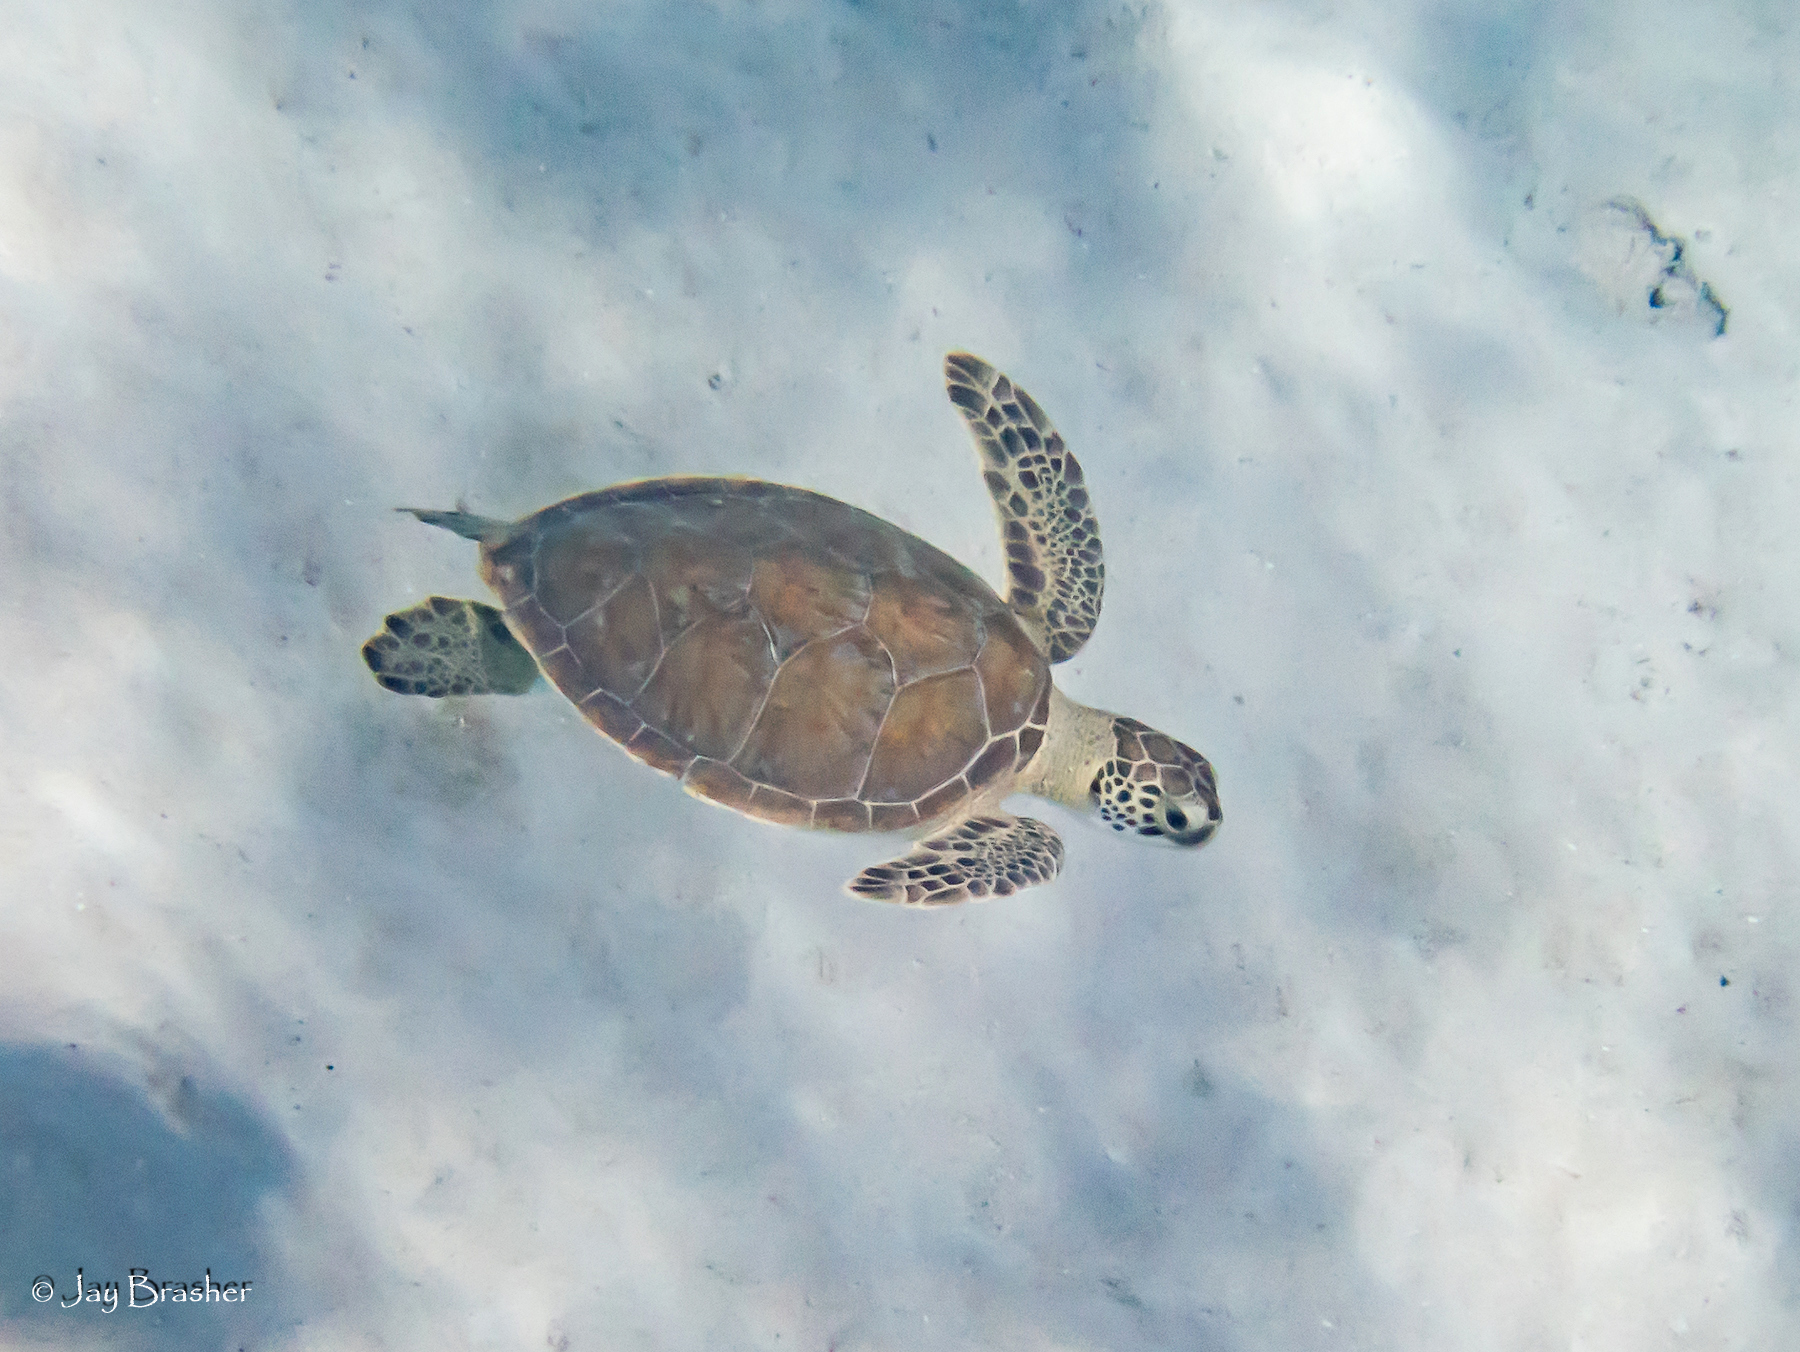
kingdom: Animalia
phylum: Chordata
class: Testudines
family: Cheloniidae
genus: Chelonia
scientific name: Chelonia mydas
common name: Green turtle
